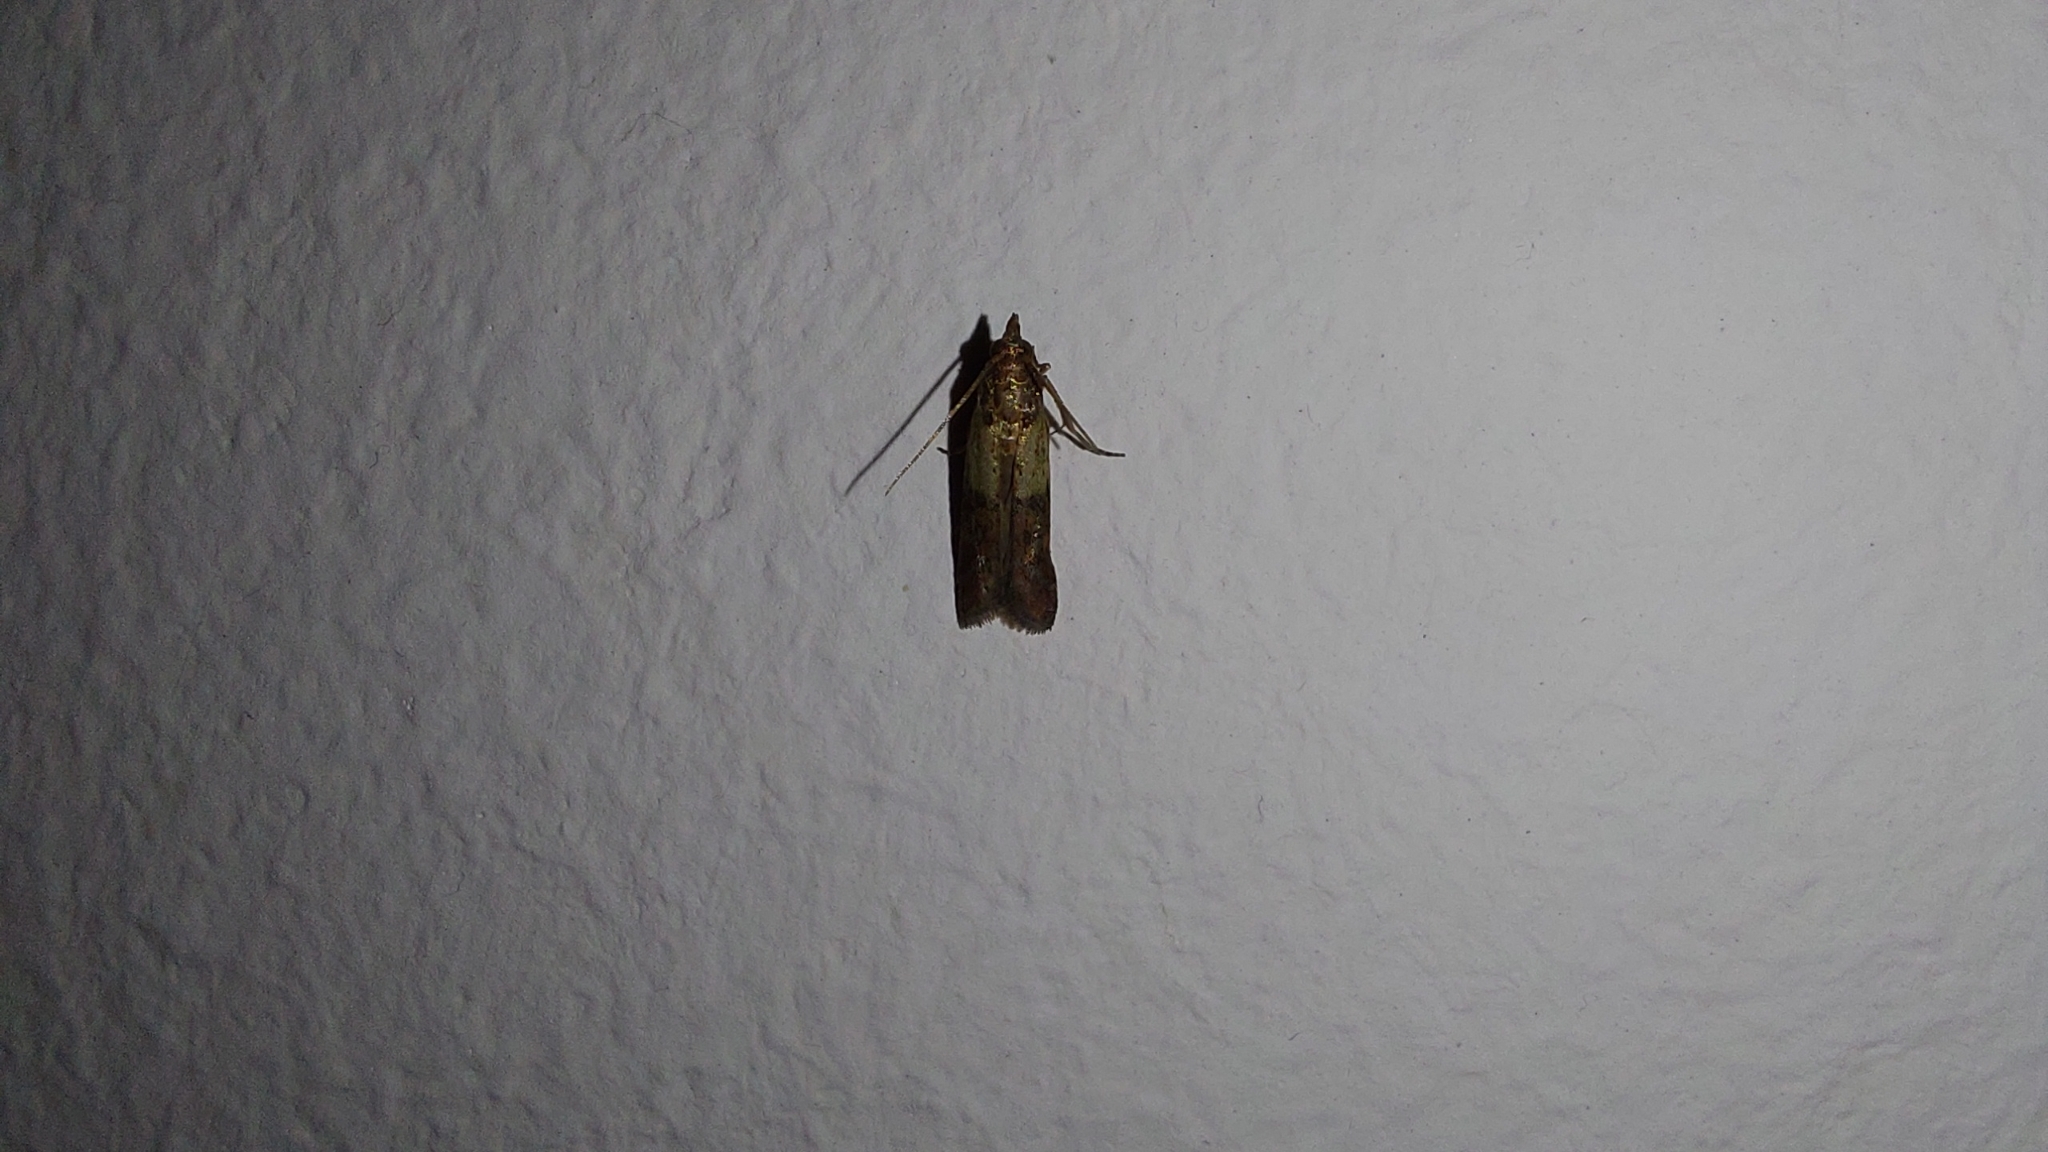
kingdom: Animalia
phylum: Arthropoda
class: Insecta
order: Lepidoptera
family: Pyralidae
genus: Plodia
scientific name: Plodia interpunctella
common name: Indian meal moth
